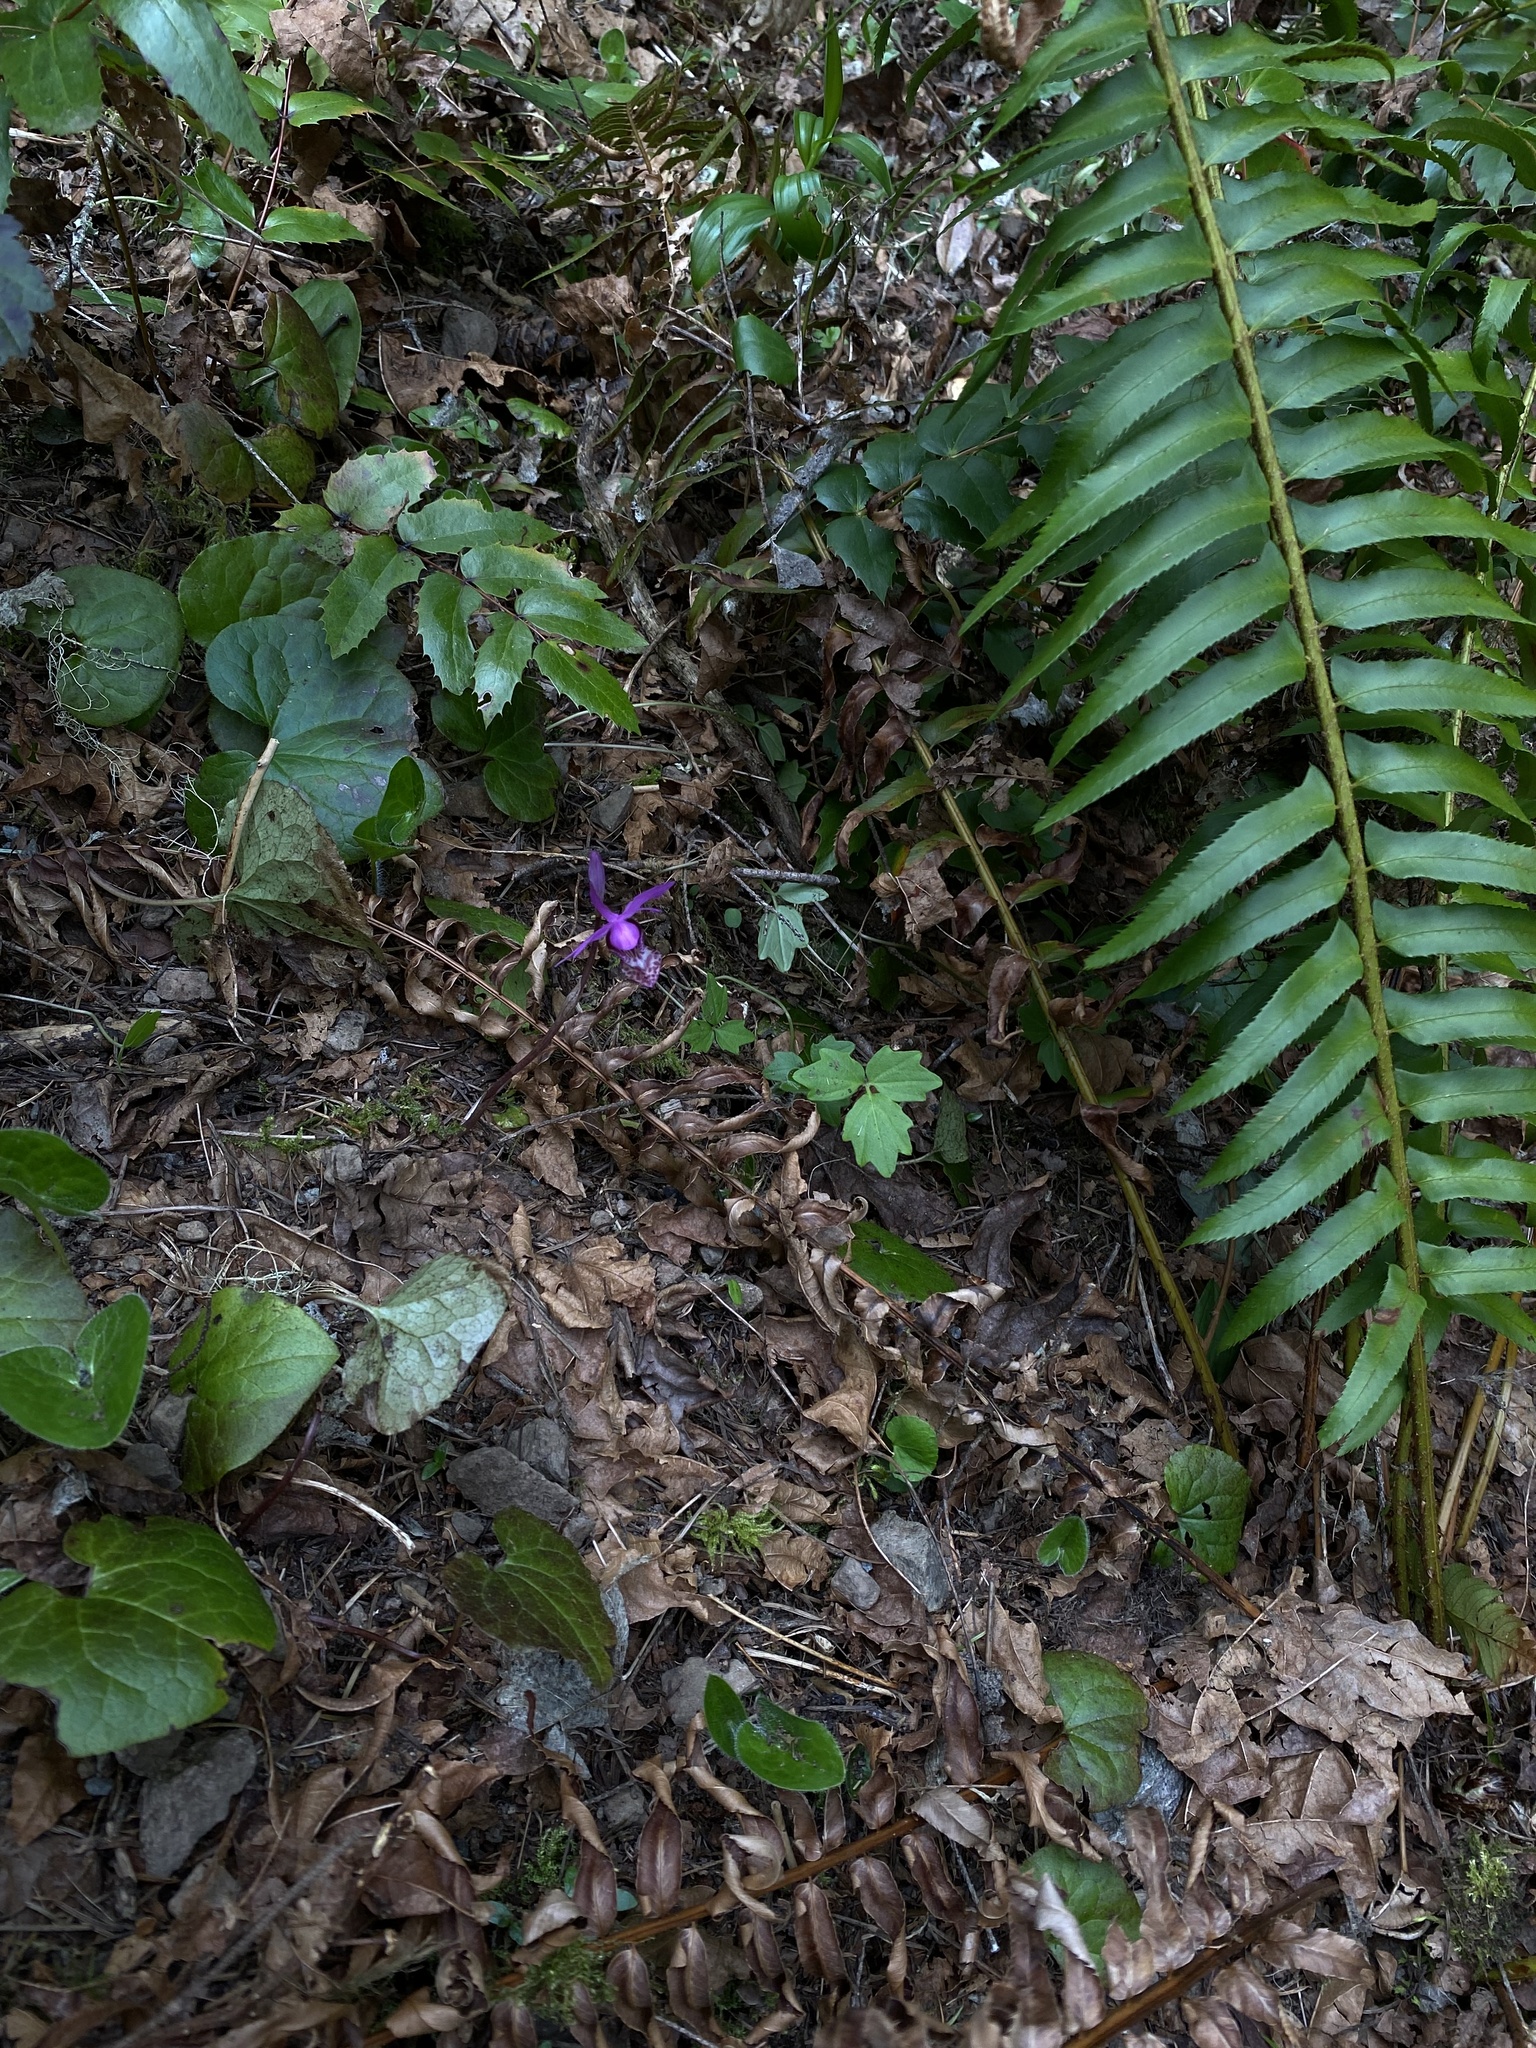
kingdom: Plantae
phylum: Tracheophyta
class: Liliopsida
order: Asparagales
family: Orchidaceae
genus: Calypso
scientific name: Calypso bulbosa
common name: Calypso
